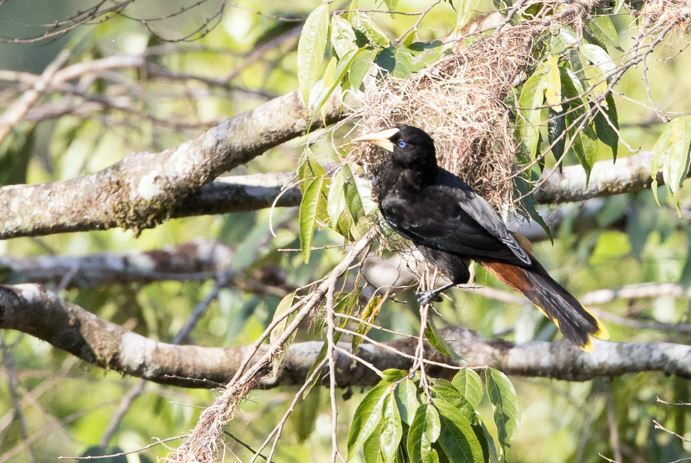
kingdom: Animalia
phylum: Chordata
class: Aves
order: Passeriformes
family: Icteridae
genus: Psarocolius
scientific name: Psarocolius decumanus
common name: Crested oropendola
